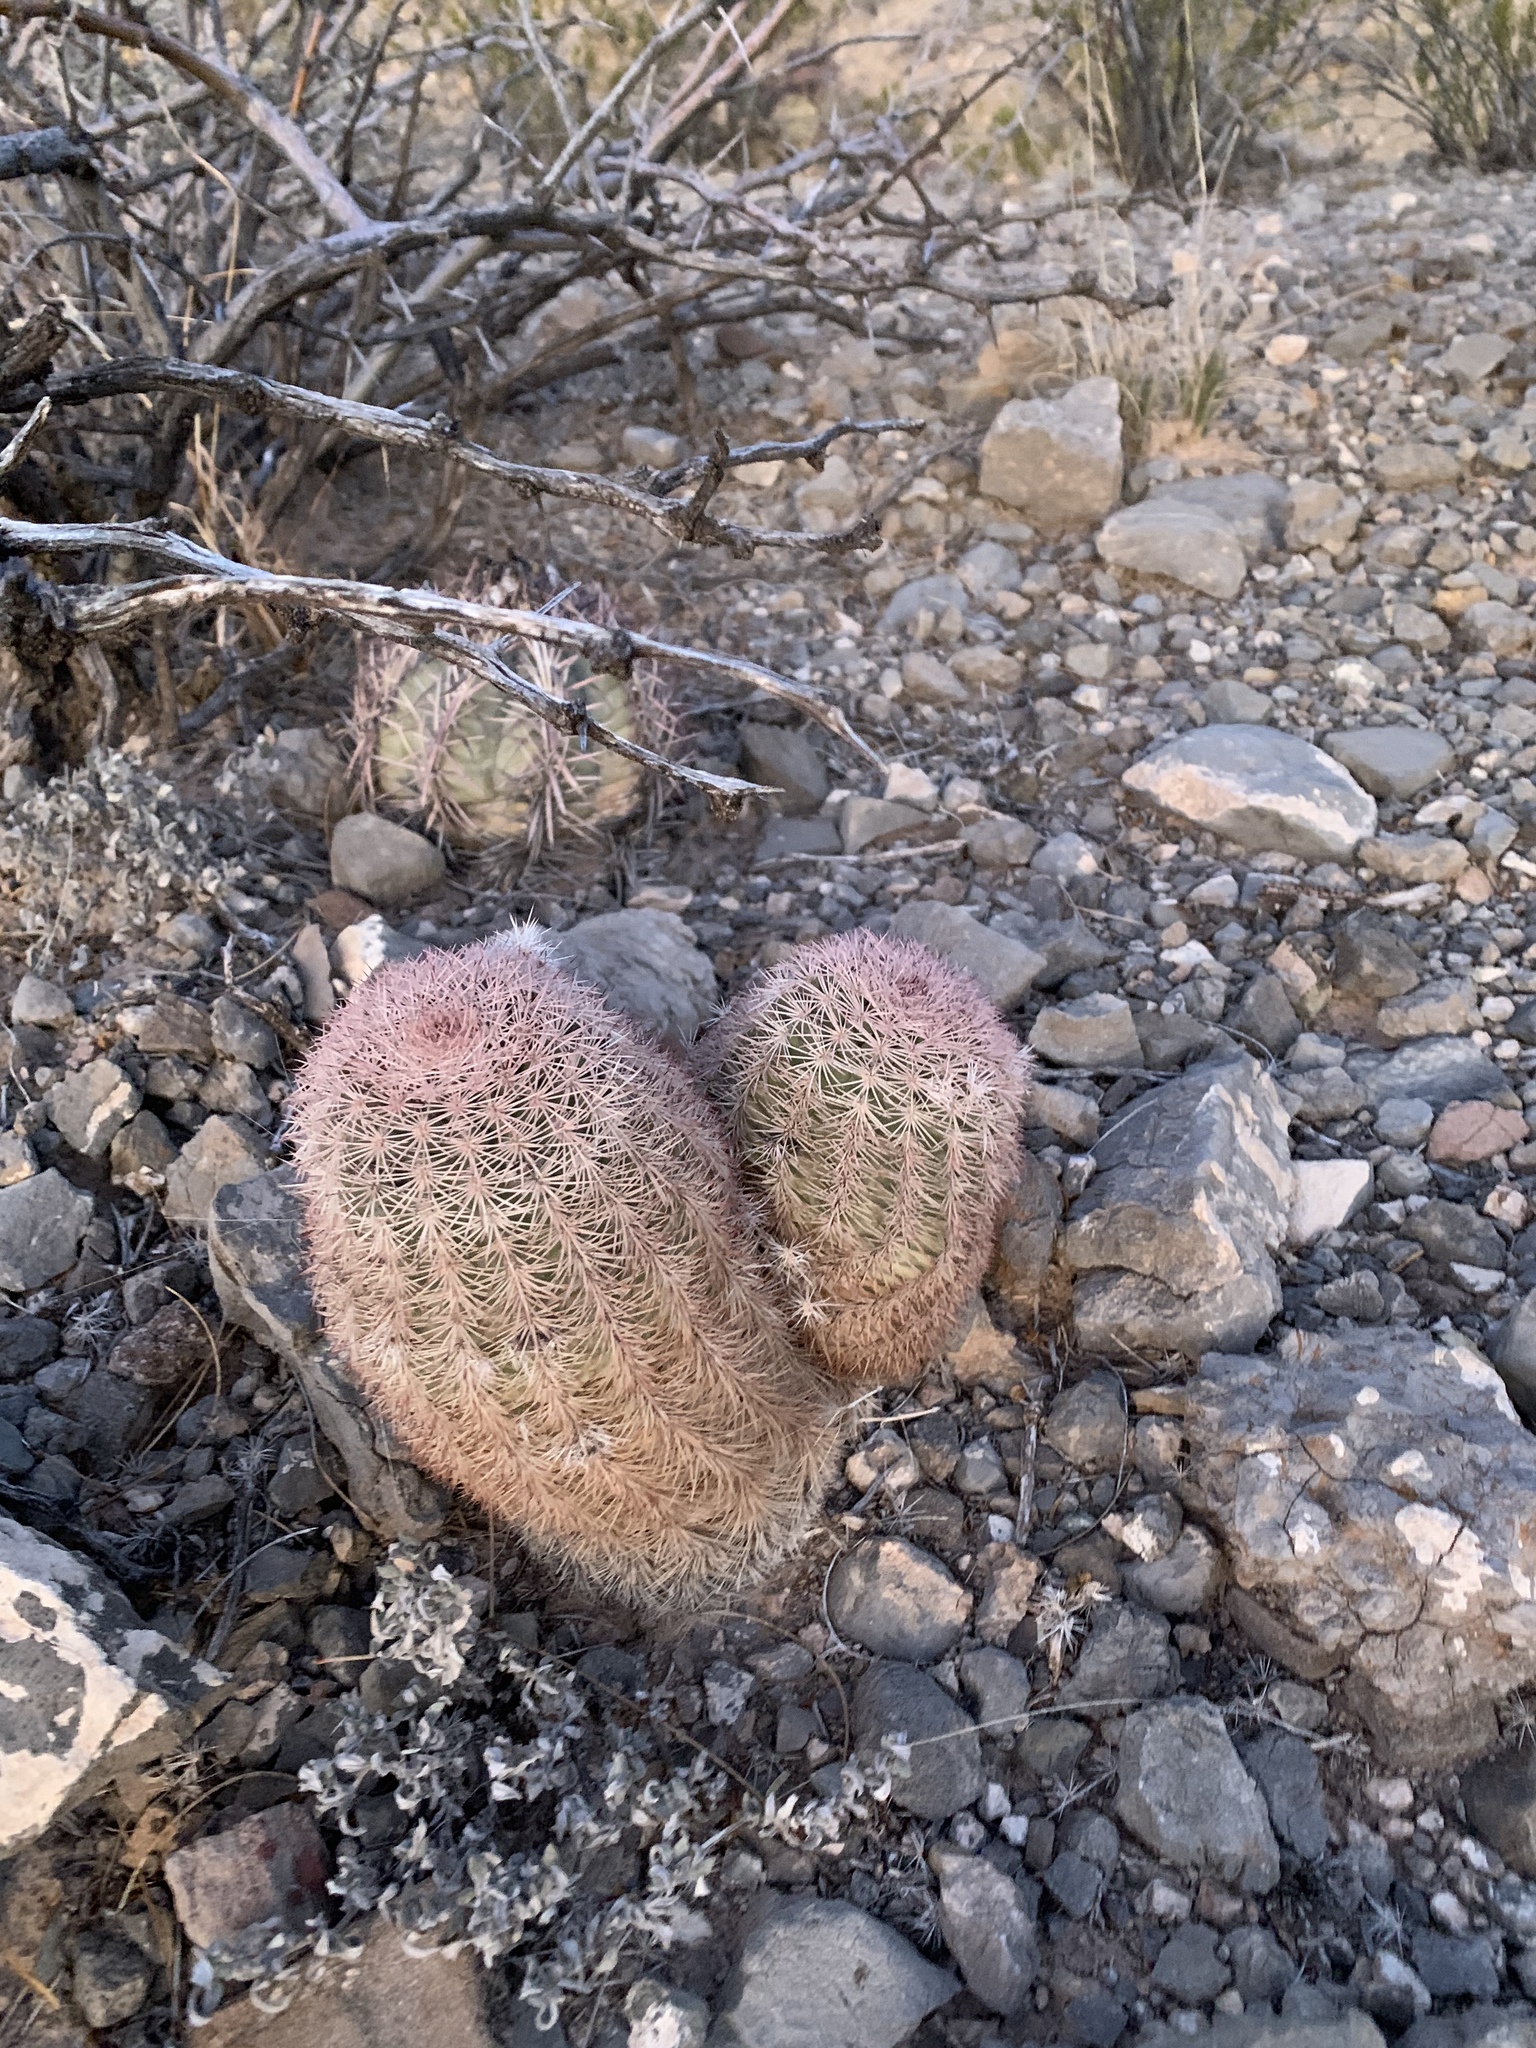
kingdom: Plantae
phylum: Tracheophyta
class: Magnoliopsida
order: Caryophyllales
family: Cactaceae
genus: Echinocereus
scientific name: Echinocereus dasyacanthus
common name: Spiny hedgehog cactus
